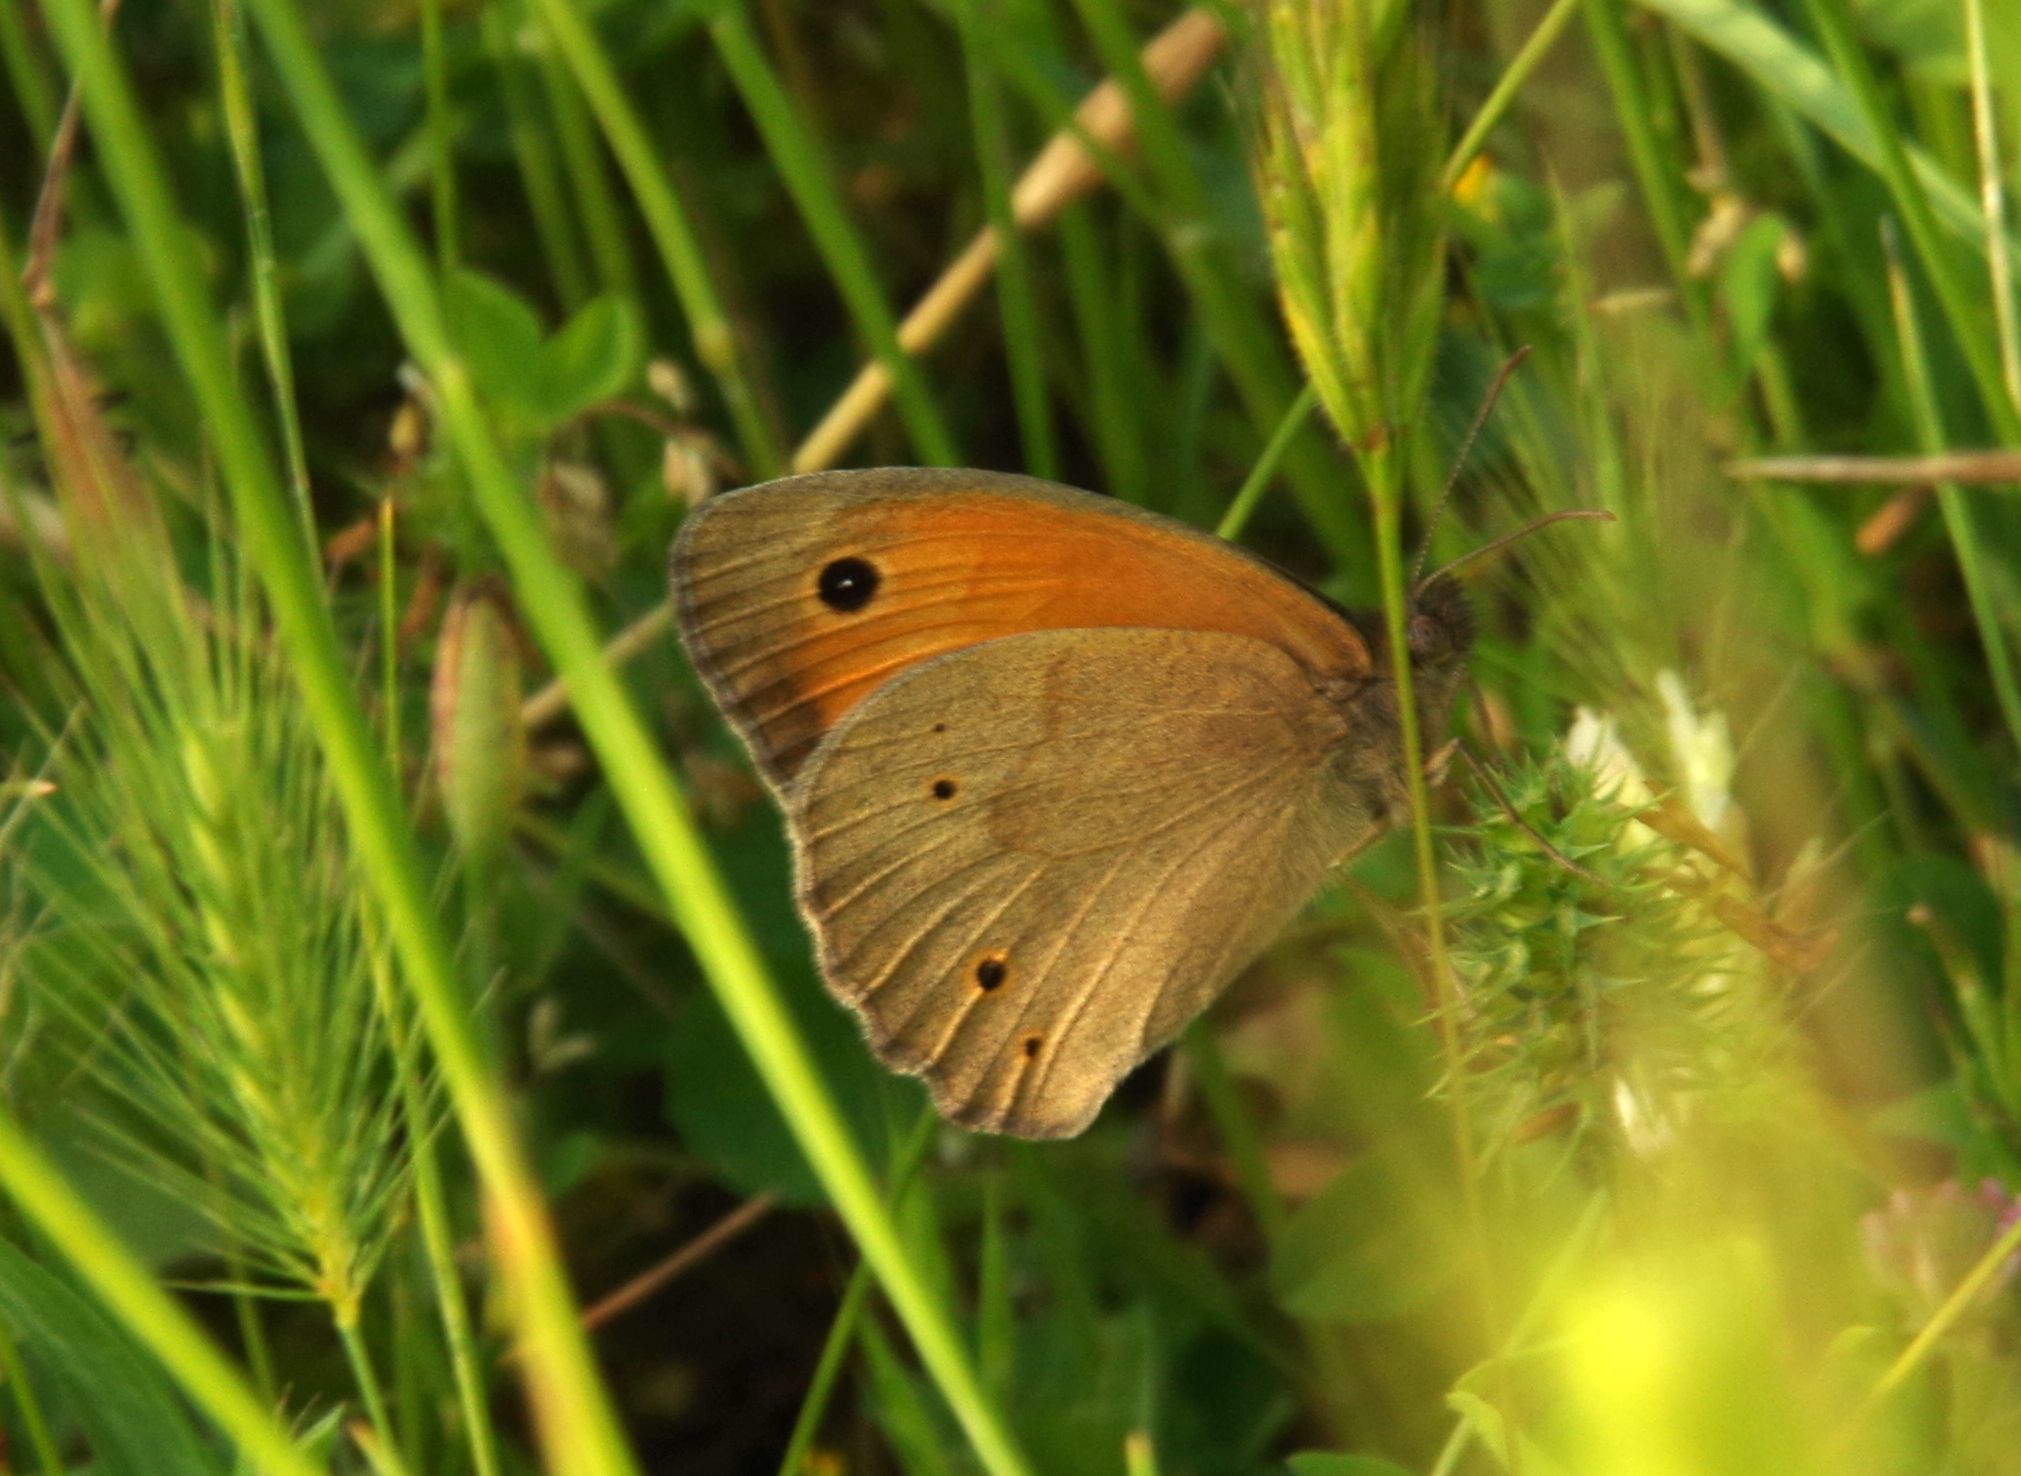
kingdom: Animalia
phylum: Arthropoda
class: Insecta
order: Lepidoptera
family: Nymphalidae
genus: Maniola
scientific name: Maniola jurtina
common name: Meadow brown
